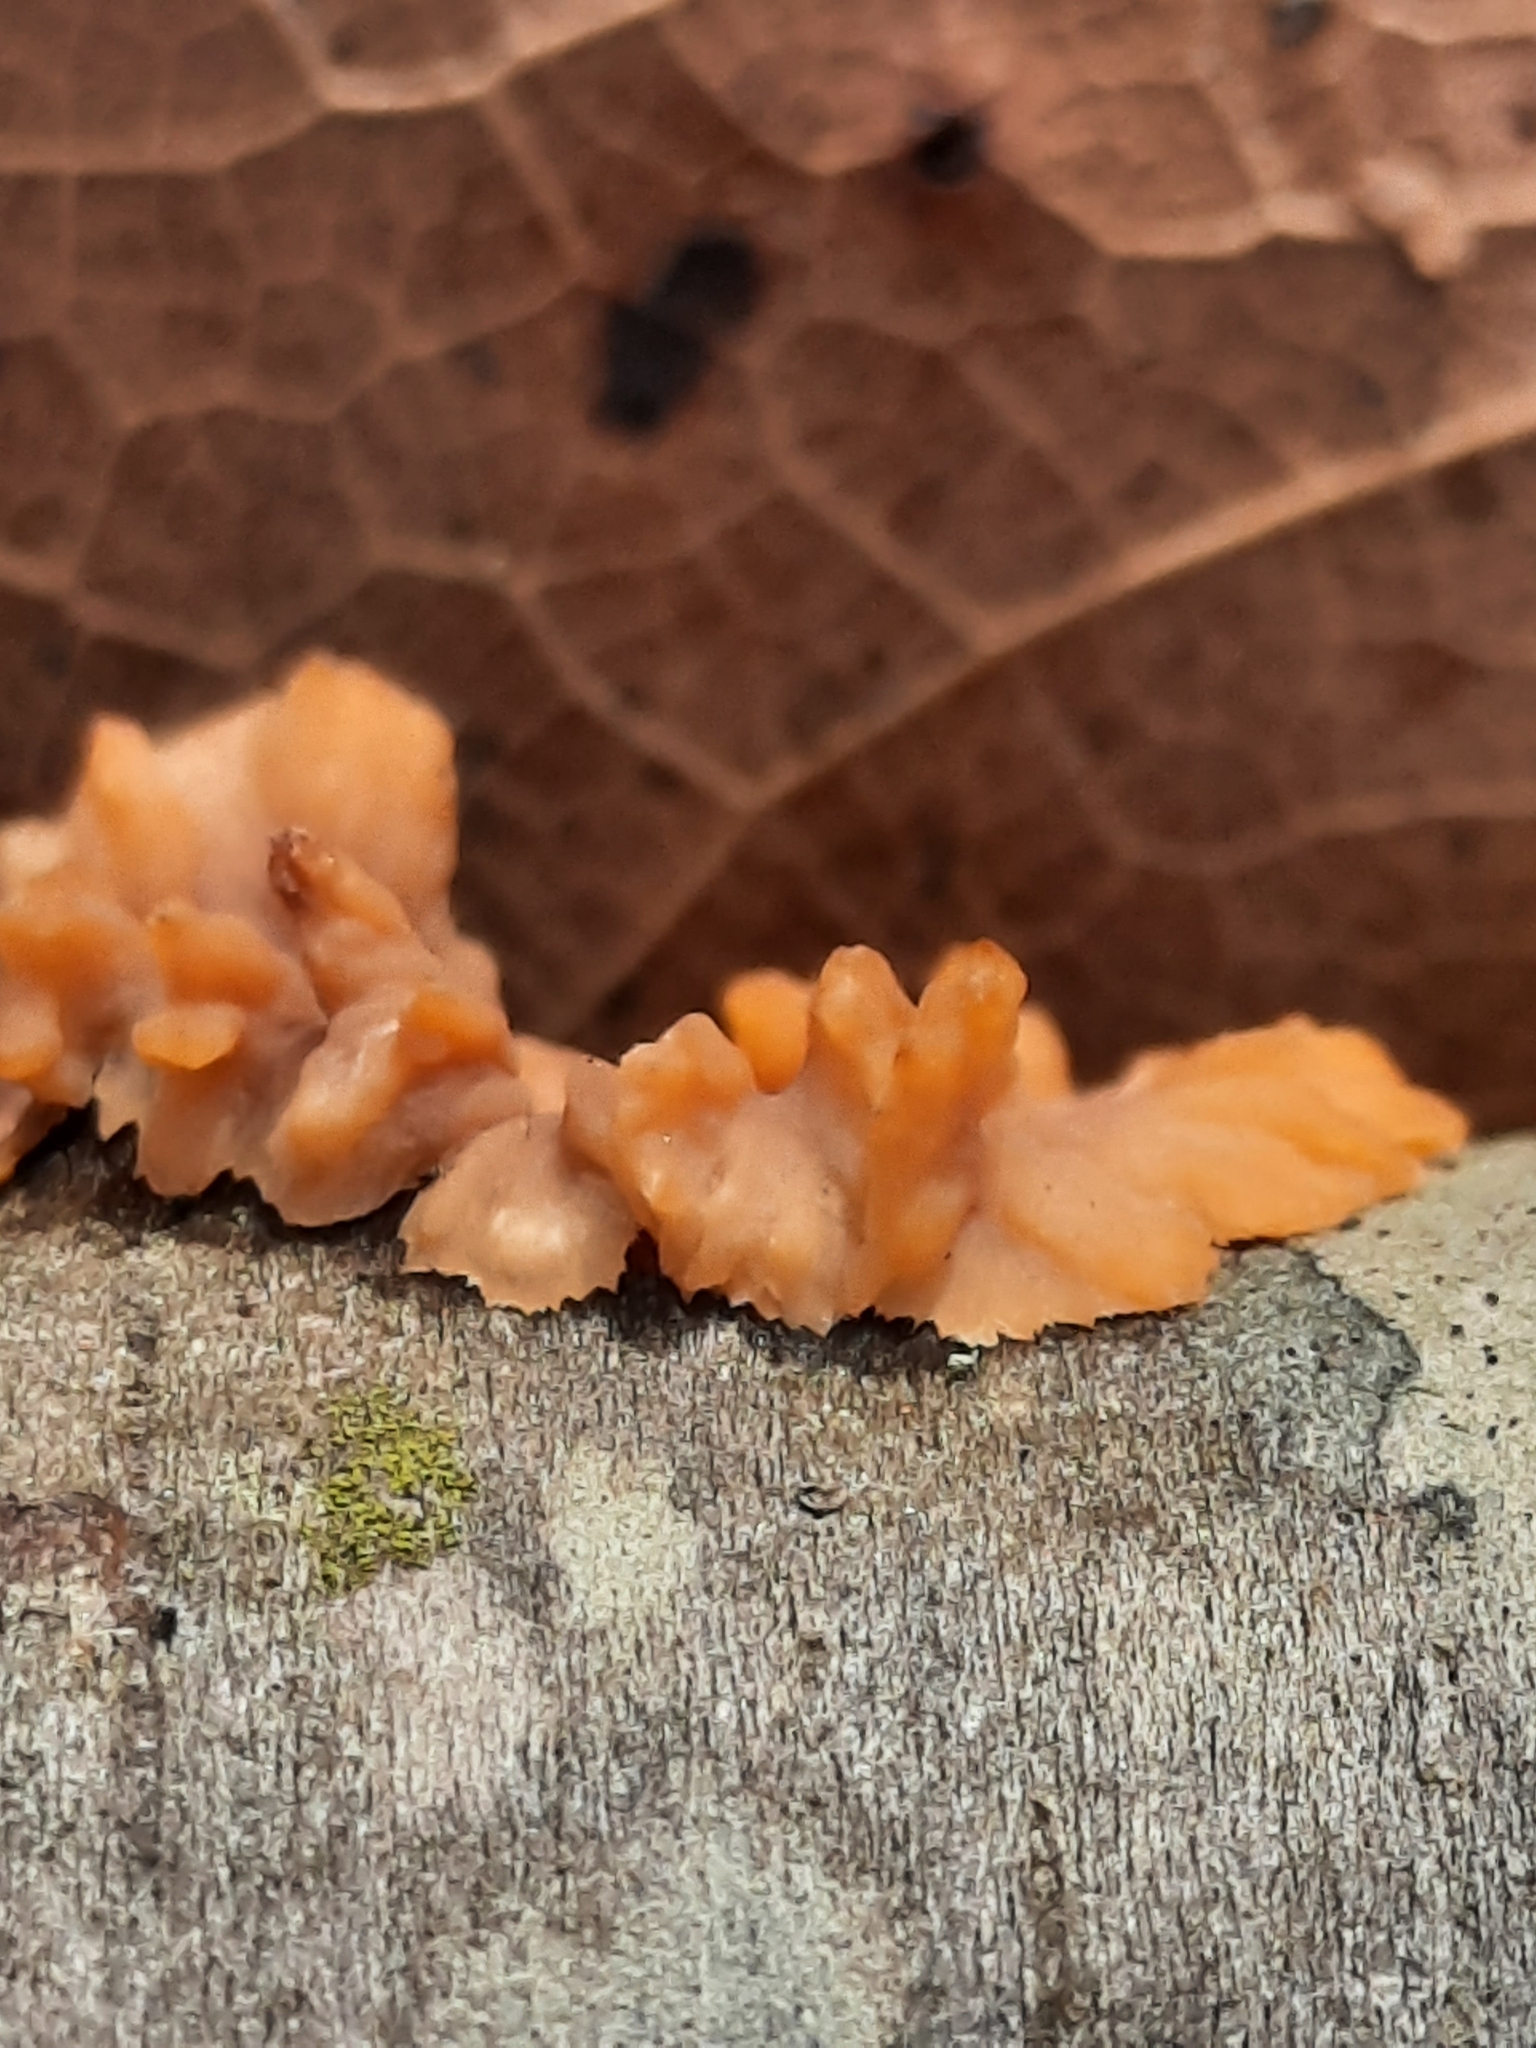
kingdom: Fungi
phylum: Basidiomycota
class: Agaricomycetes
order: Polyporales
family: Meruliaceae
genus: Phlebia
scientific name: Phlebia radiata
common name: Wrinkled crust
